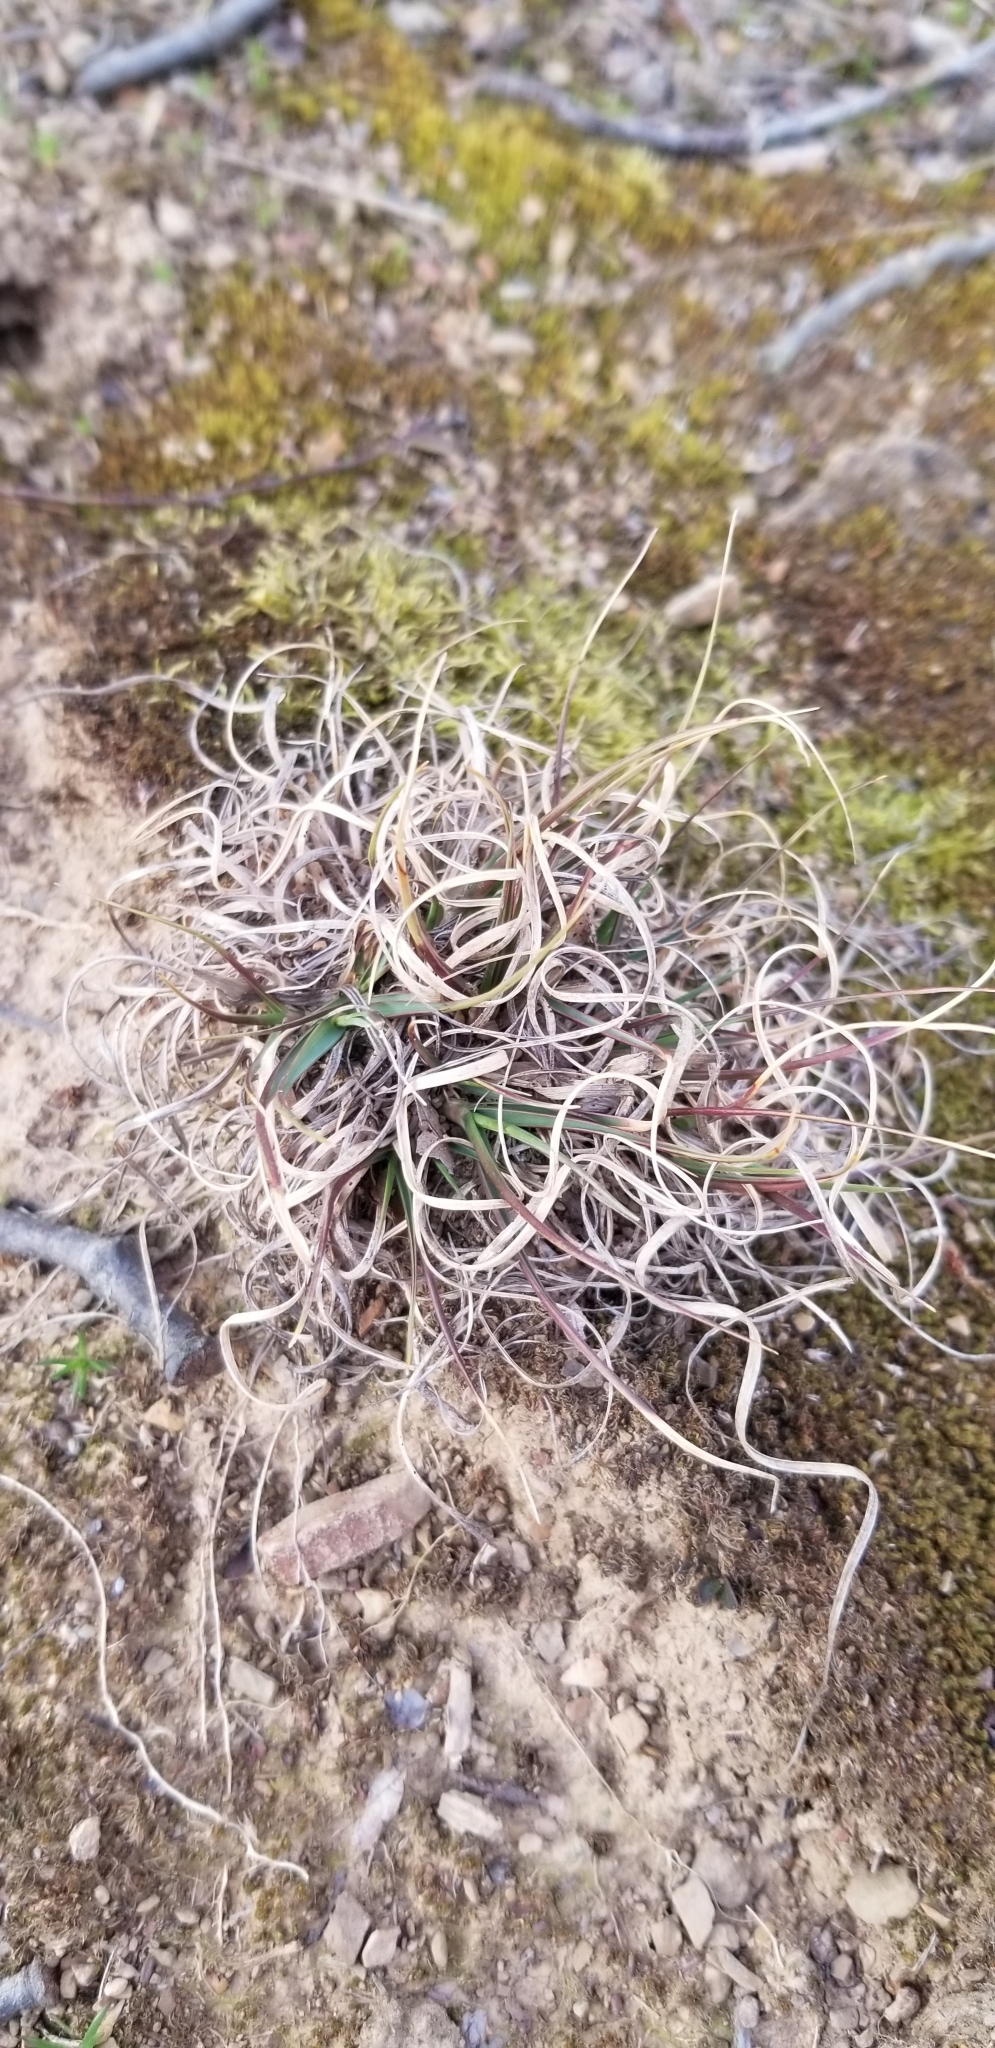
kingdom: Plantae
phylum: Tracheophyta
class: Liliopsida
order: Poales
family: Poaceae
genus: Danthonia
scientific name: Danthonia spicata
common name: Common wild oatgrass
